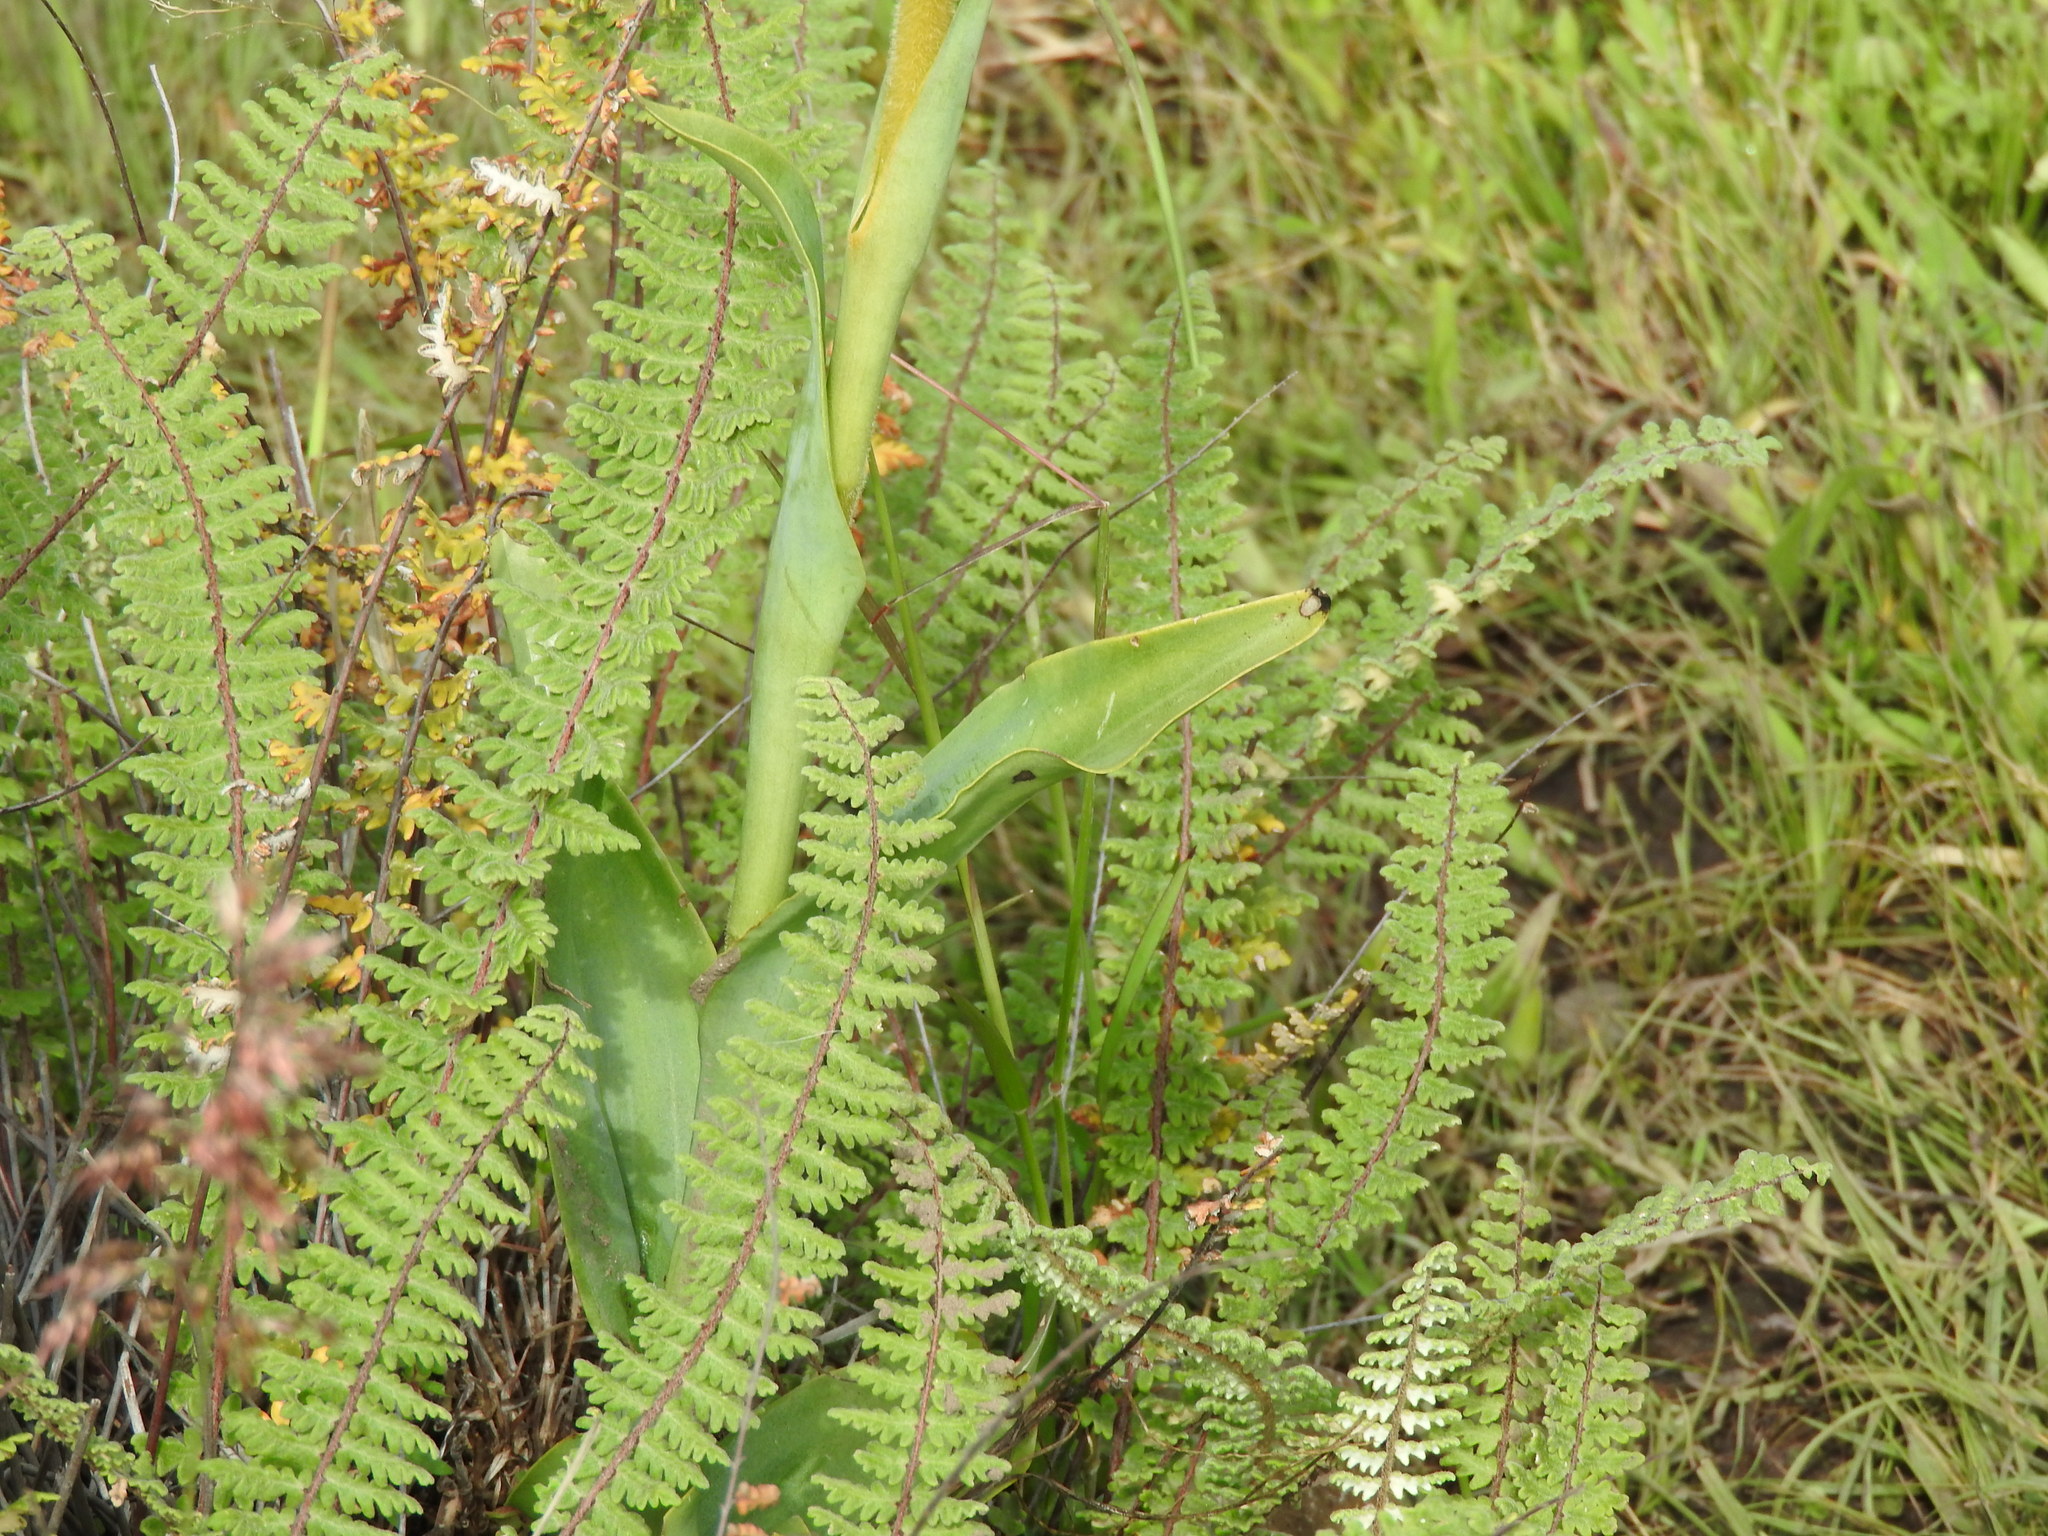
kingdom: Plantae
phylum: Tracheophyta
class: Liliopsida
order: Asparagales
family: Orchidaceae
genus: Dichromanthus
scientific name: Dichromanthus aurantiacus
